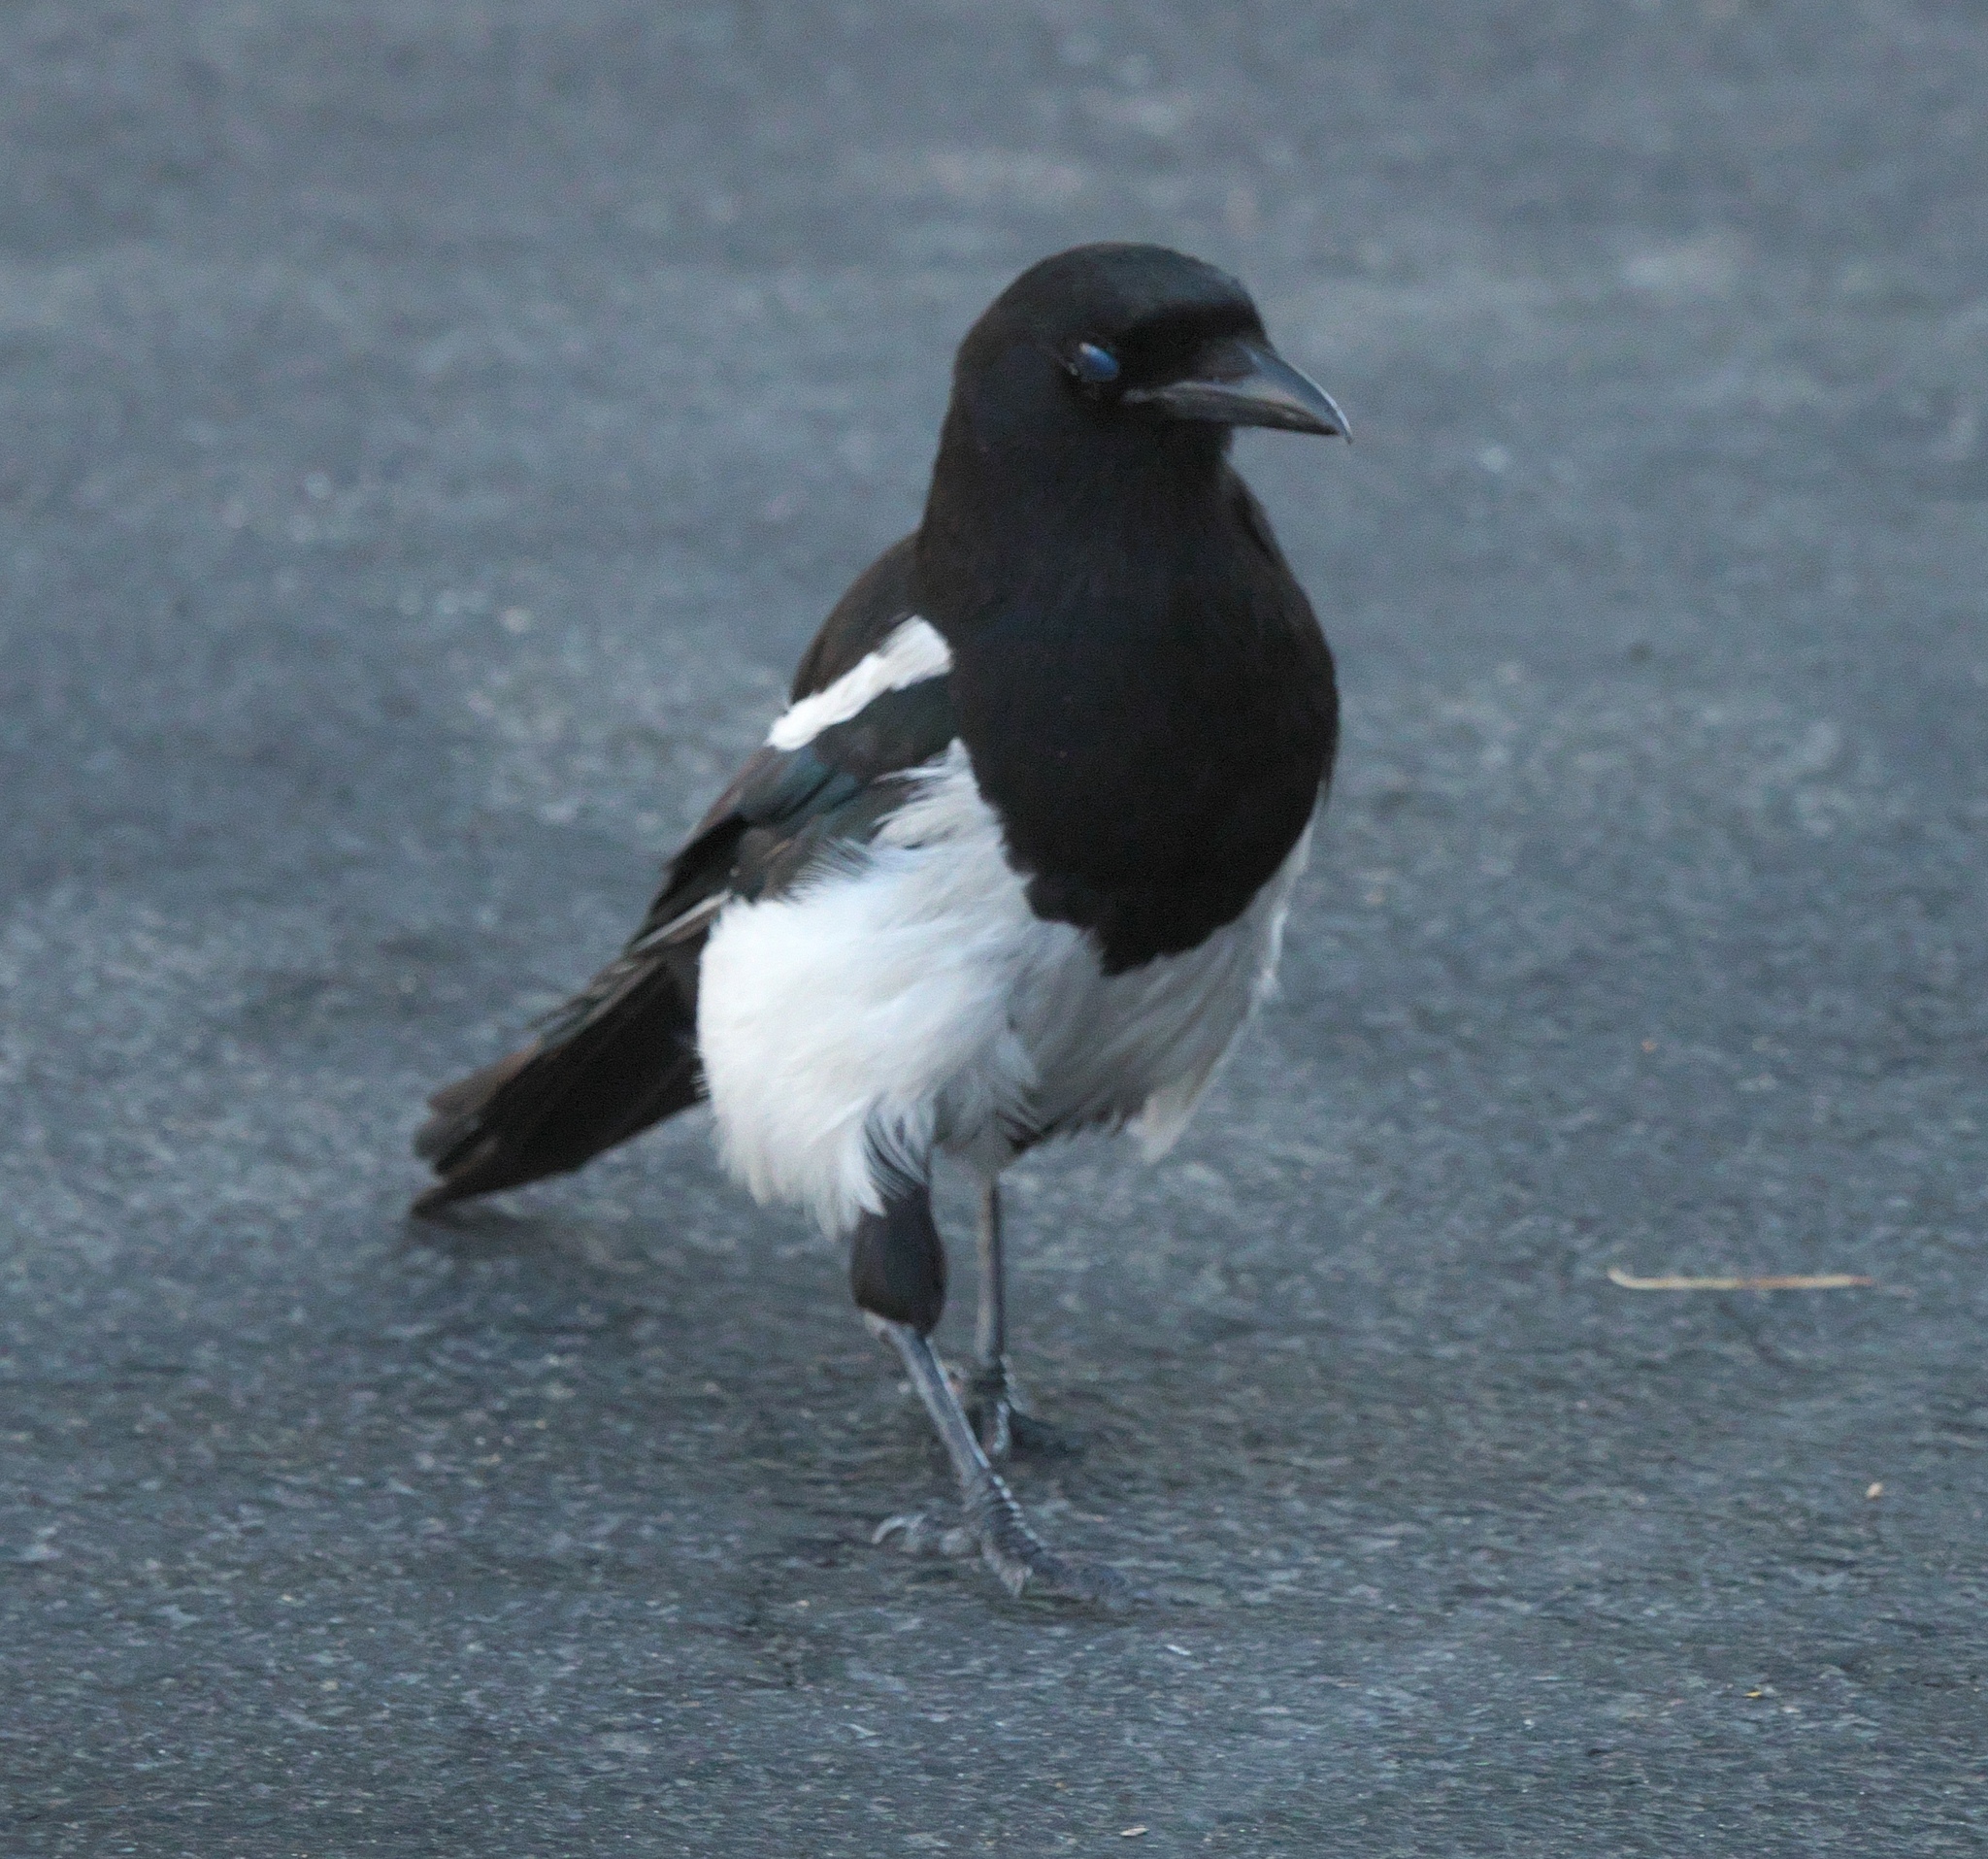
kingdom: Animalia
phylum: Chordata
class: Aves
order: Passeriformes
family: Corvidae
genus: Pica
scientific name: Pica hudsonia
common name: Black-billed magpie
